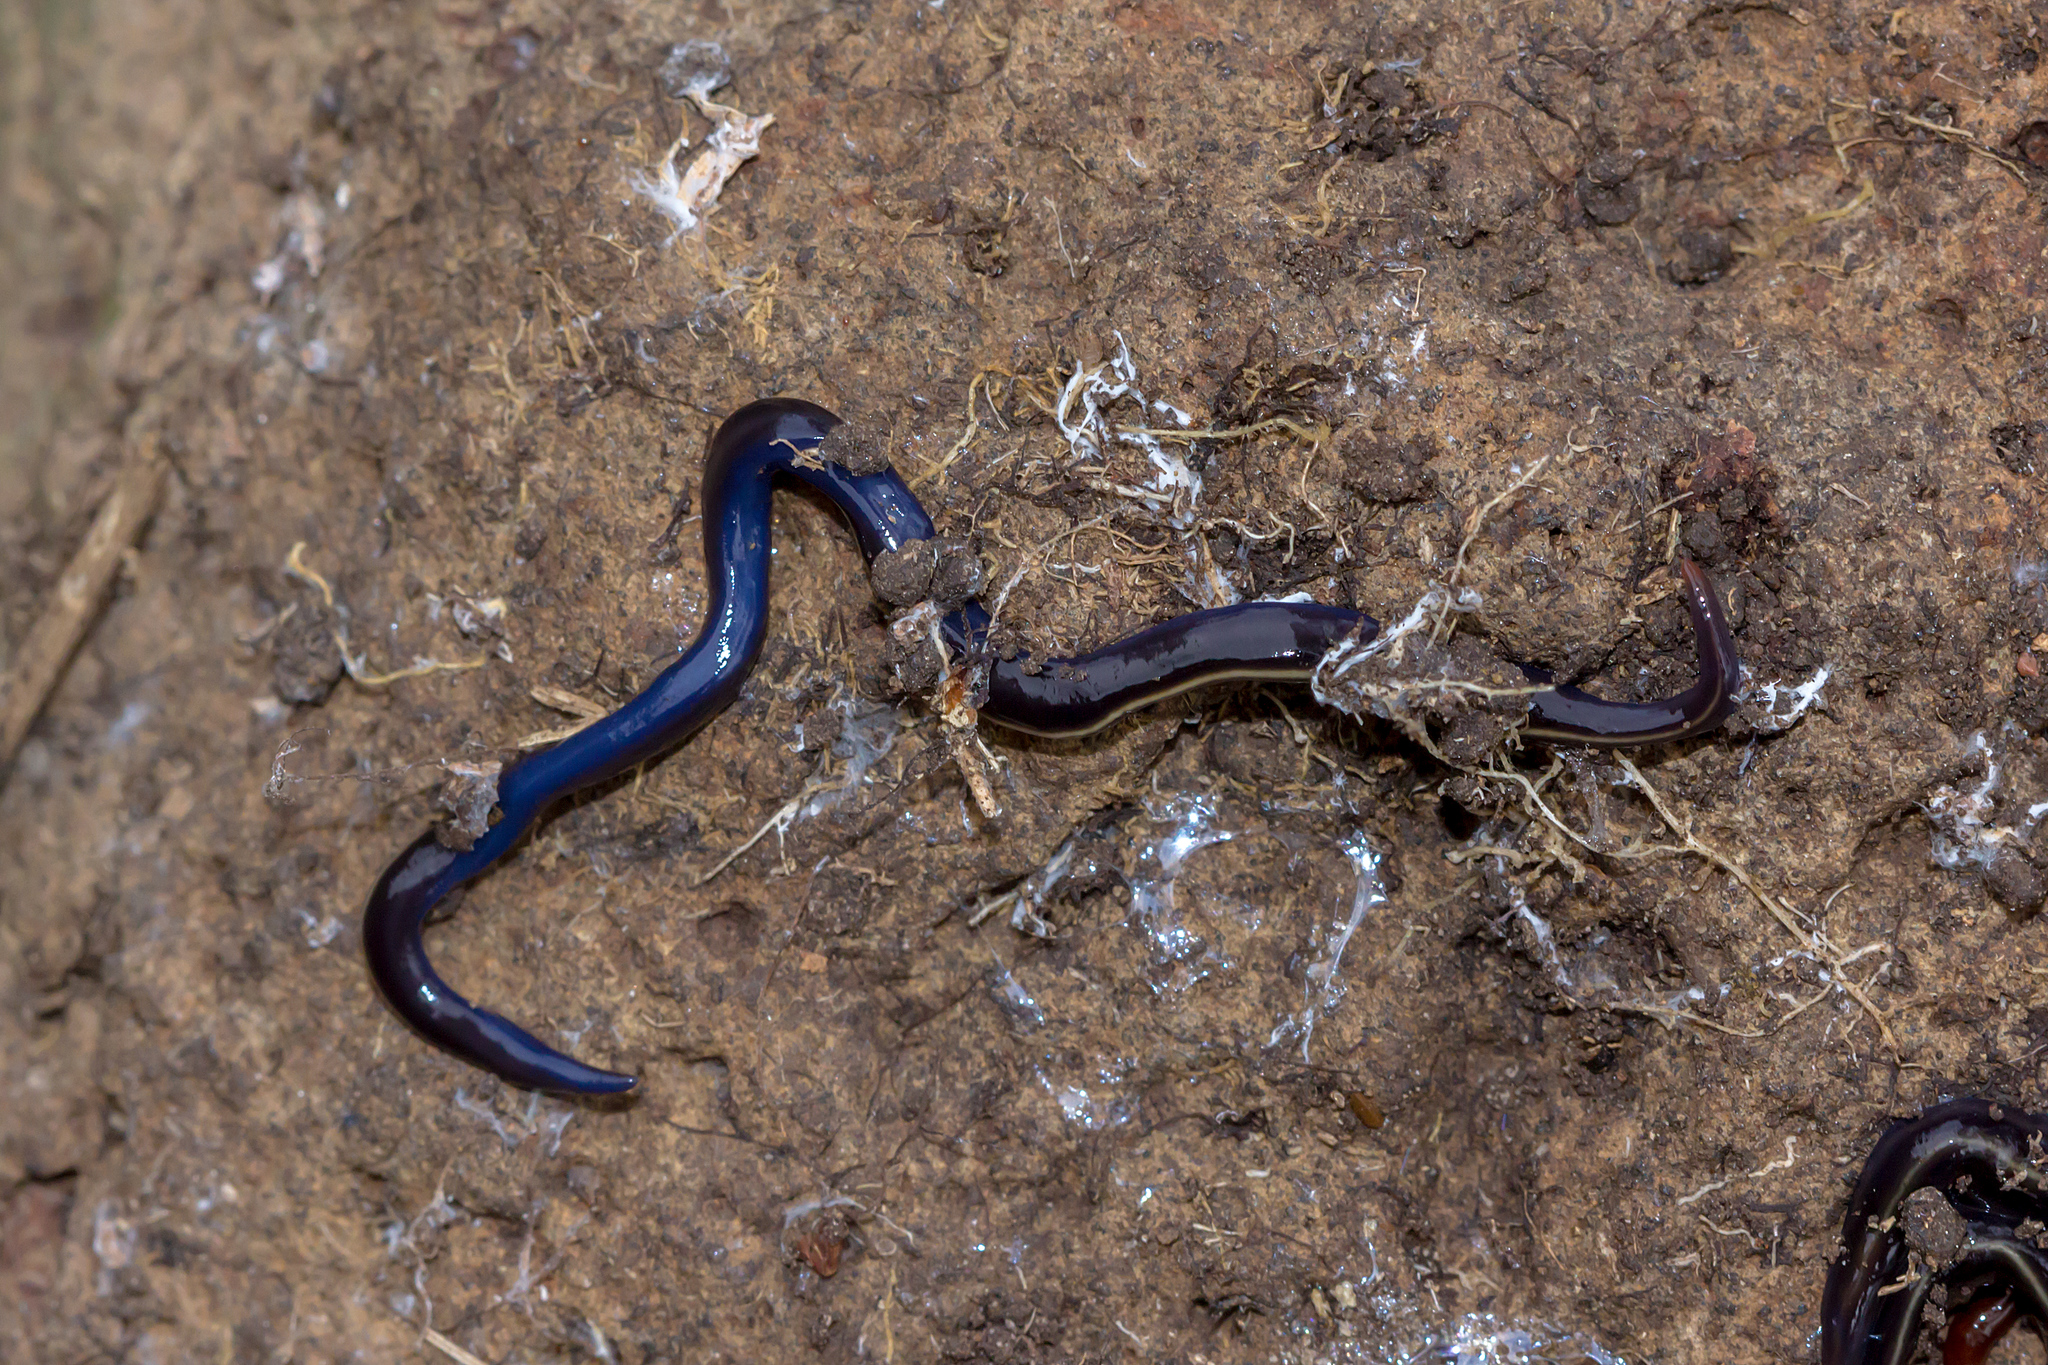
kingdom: Animalia
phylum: Platyhelminthes
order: Tricladida
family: Geoplanidae
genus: Caenoplana
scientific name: Caenoplana coerulea
